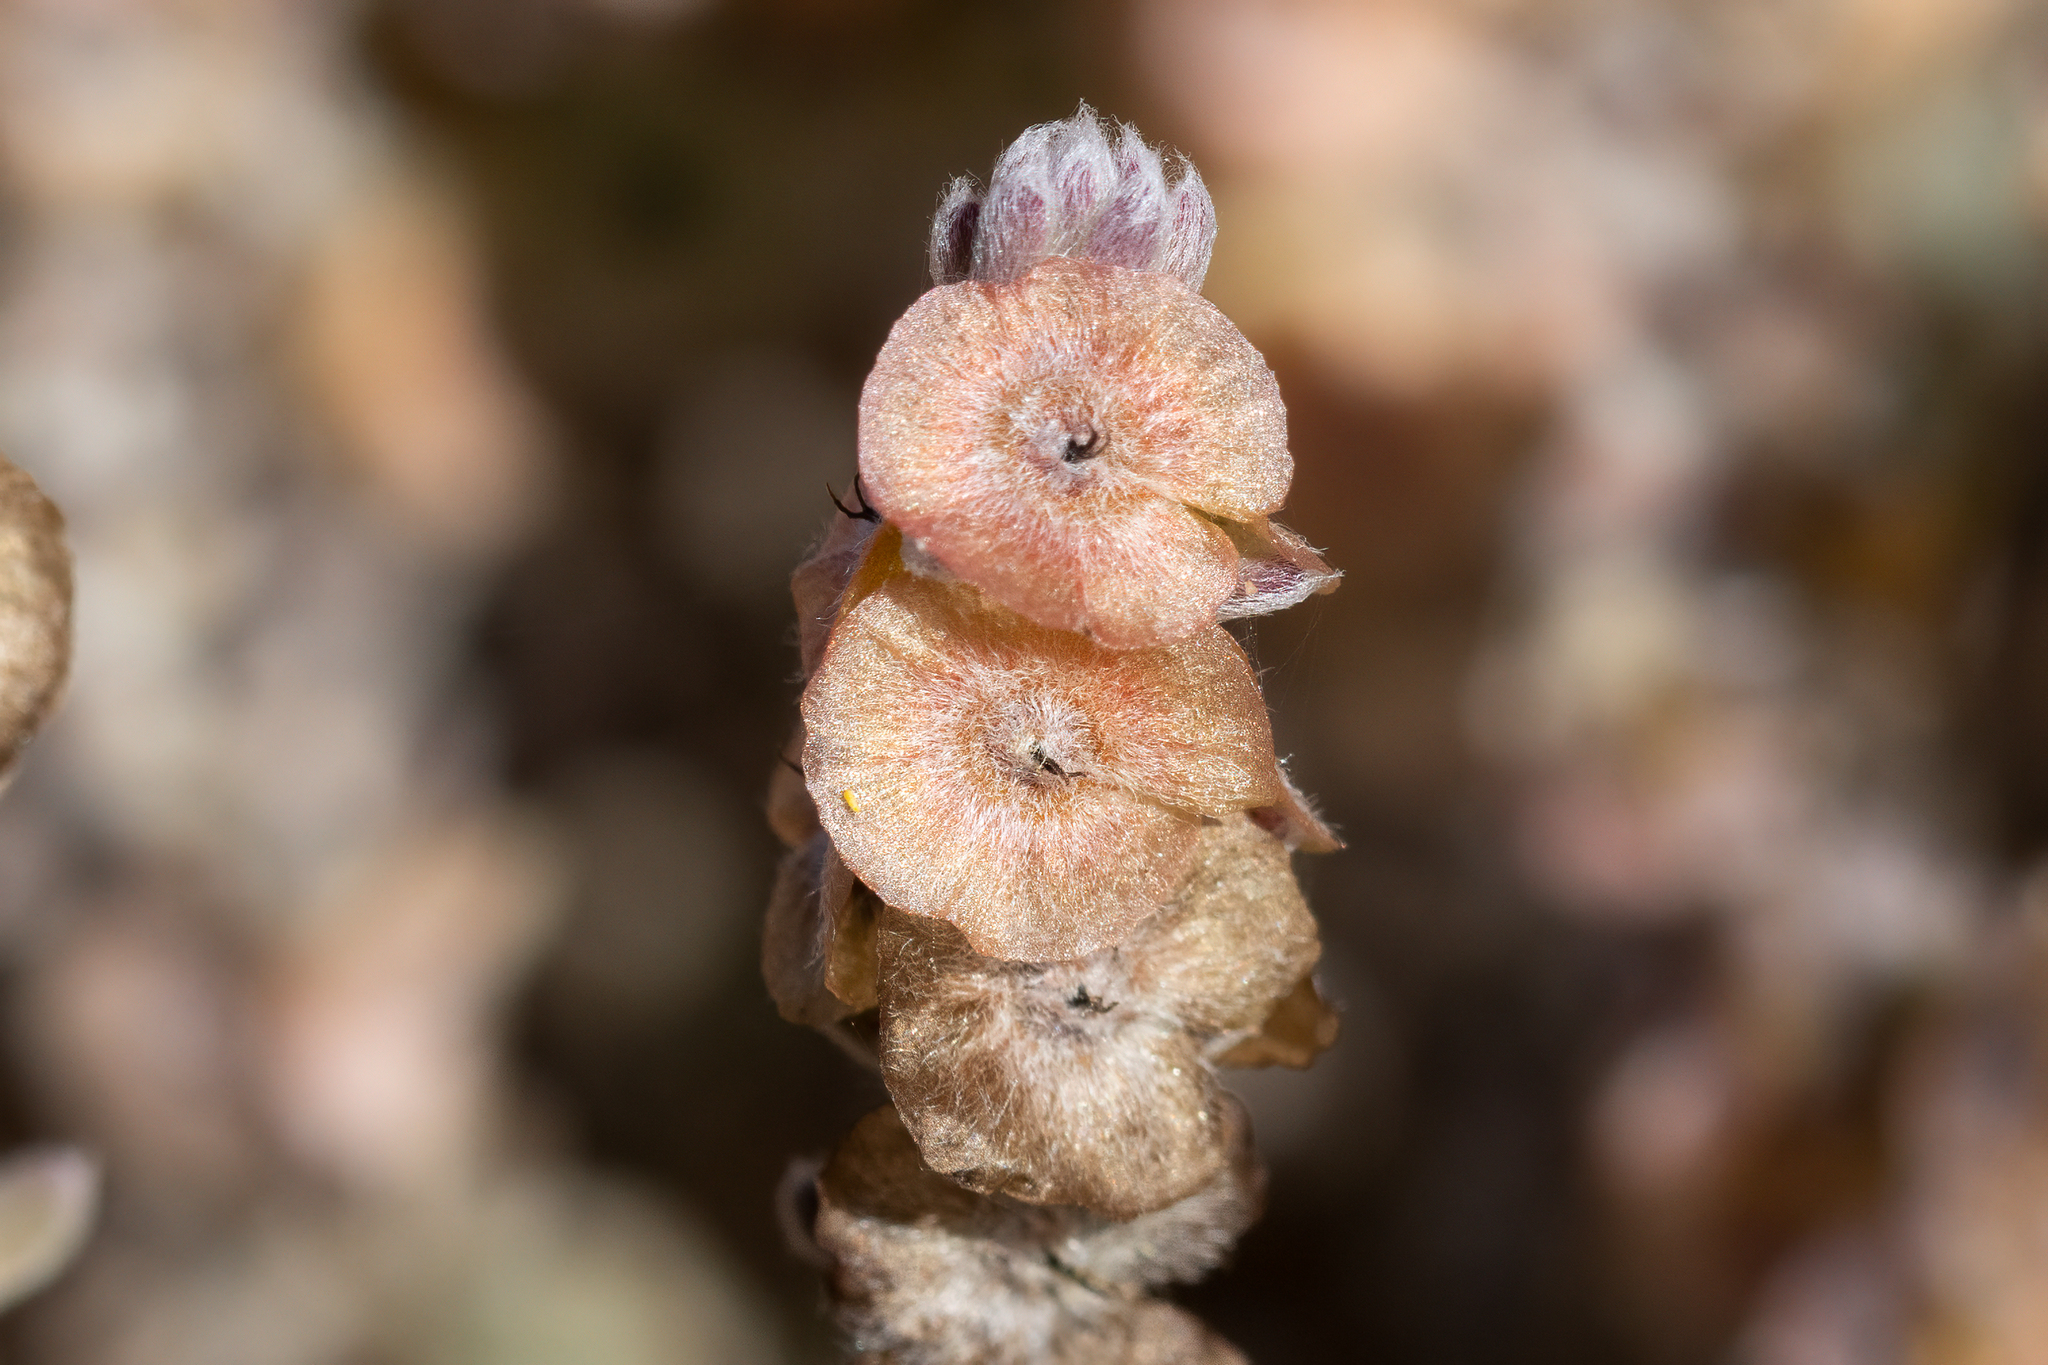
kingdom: Plantae
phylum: Tracheophyta
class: Magnoliopsida
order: Caryophyllales
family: Amaranthaceae
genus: Maireana
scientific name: Maireana trichoptera
